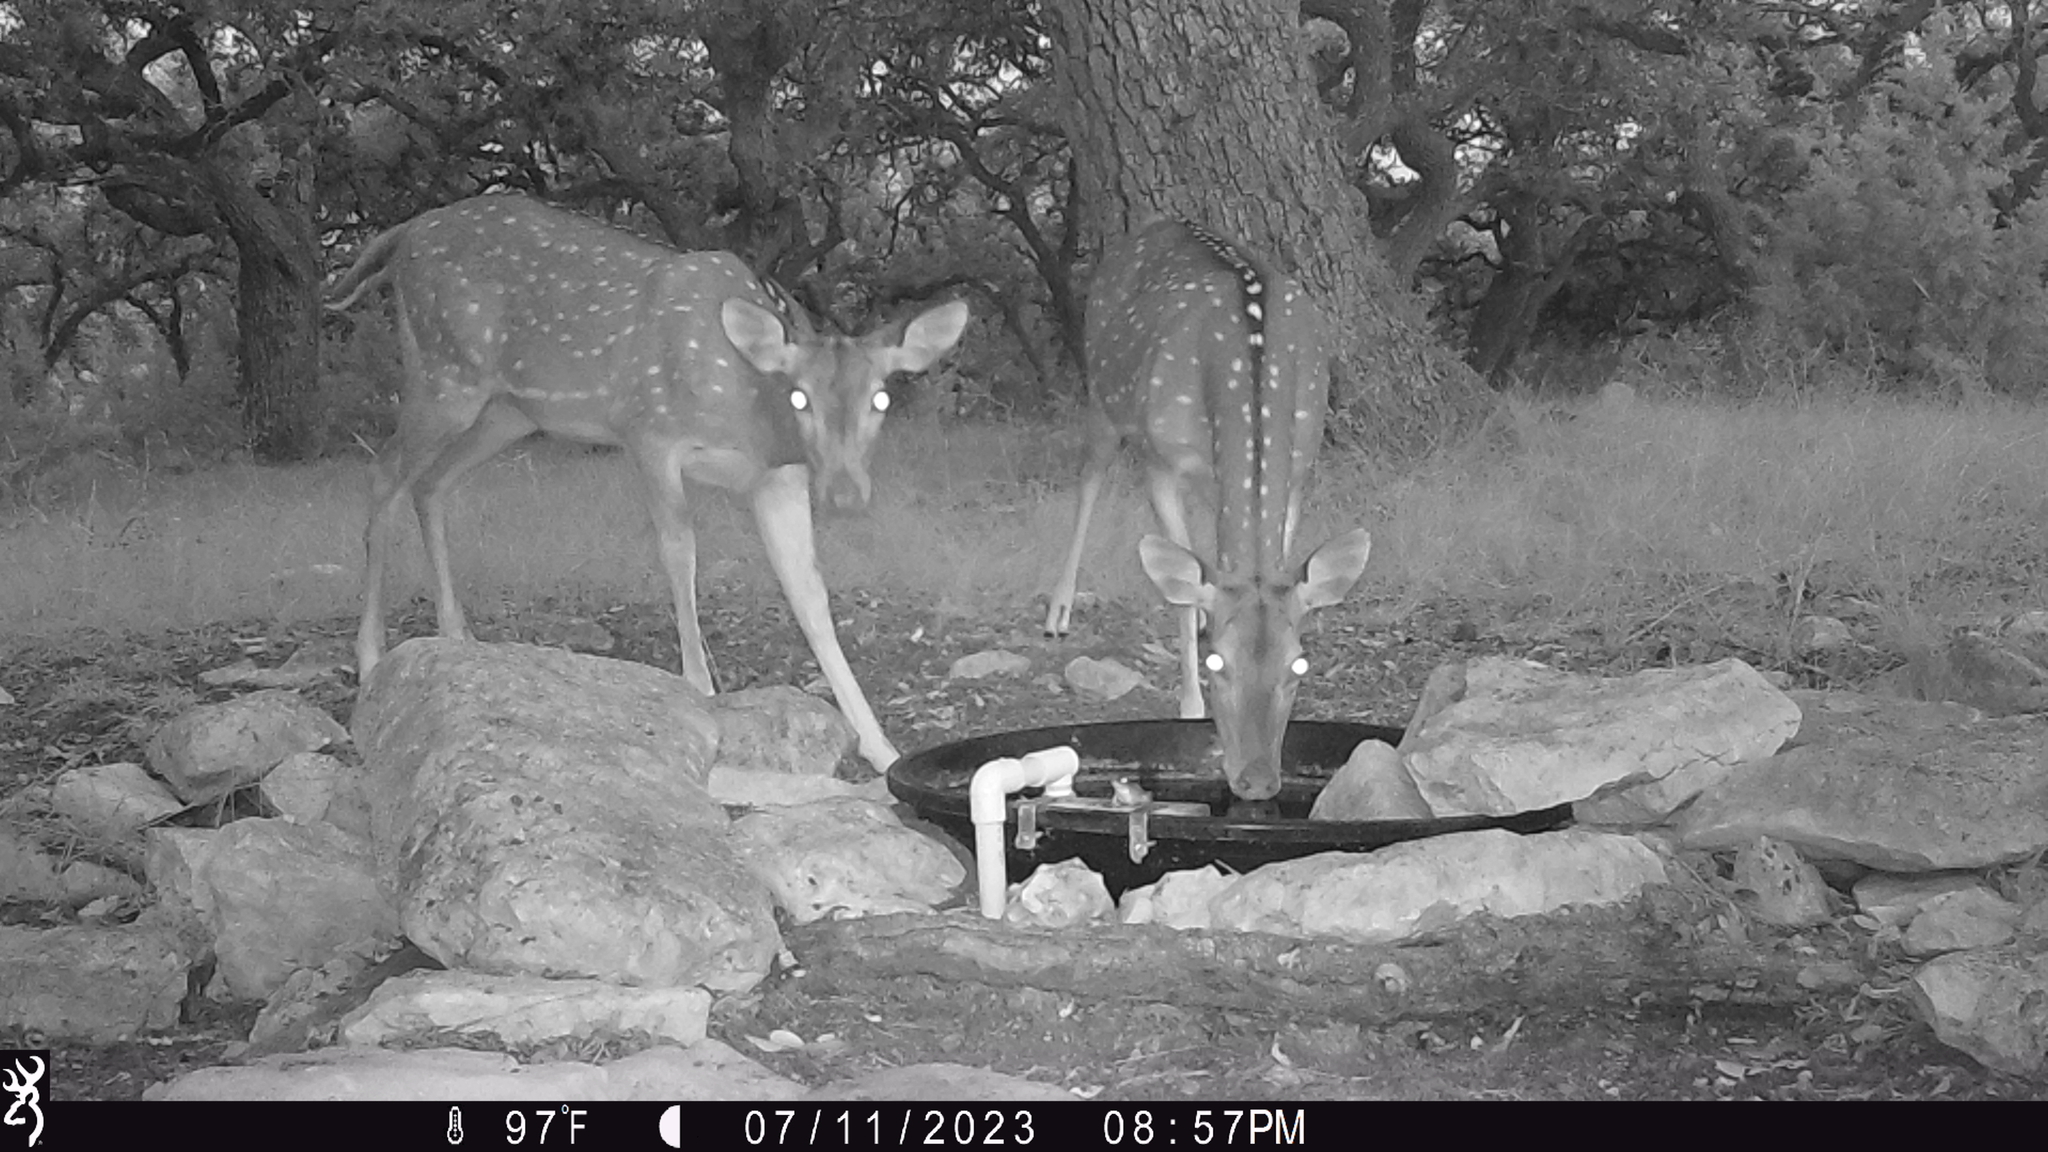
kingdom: Animalia
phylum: Chordata
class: Mammalia
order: Artiodactyla
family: Cervidae
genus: Axis
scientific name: Axis axis
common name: Chital
